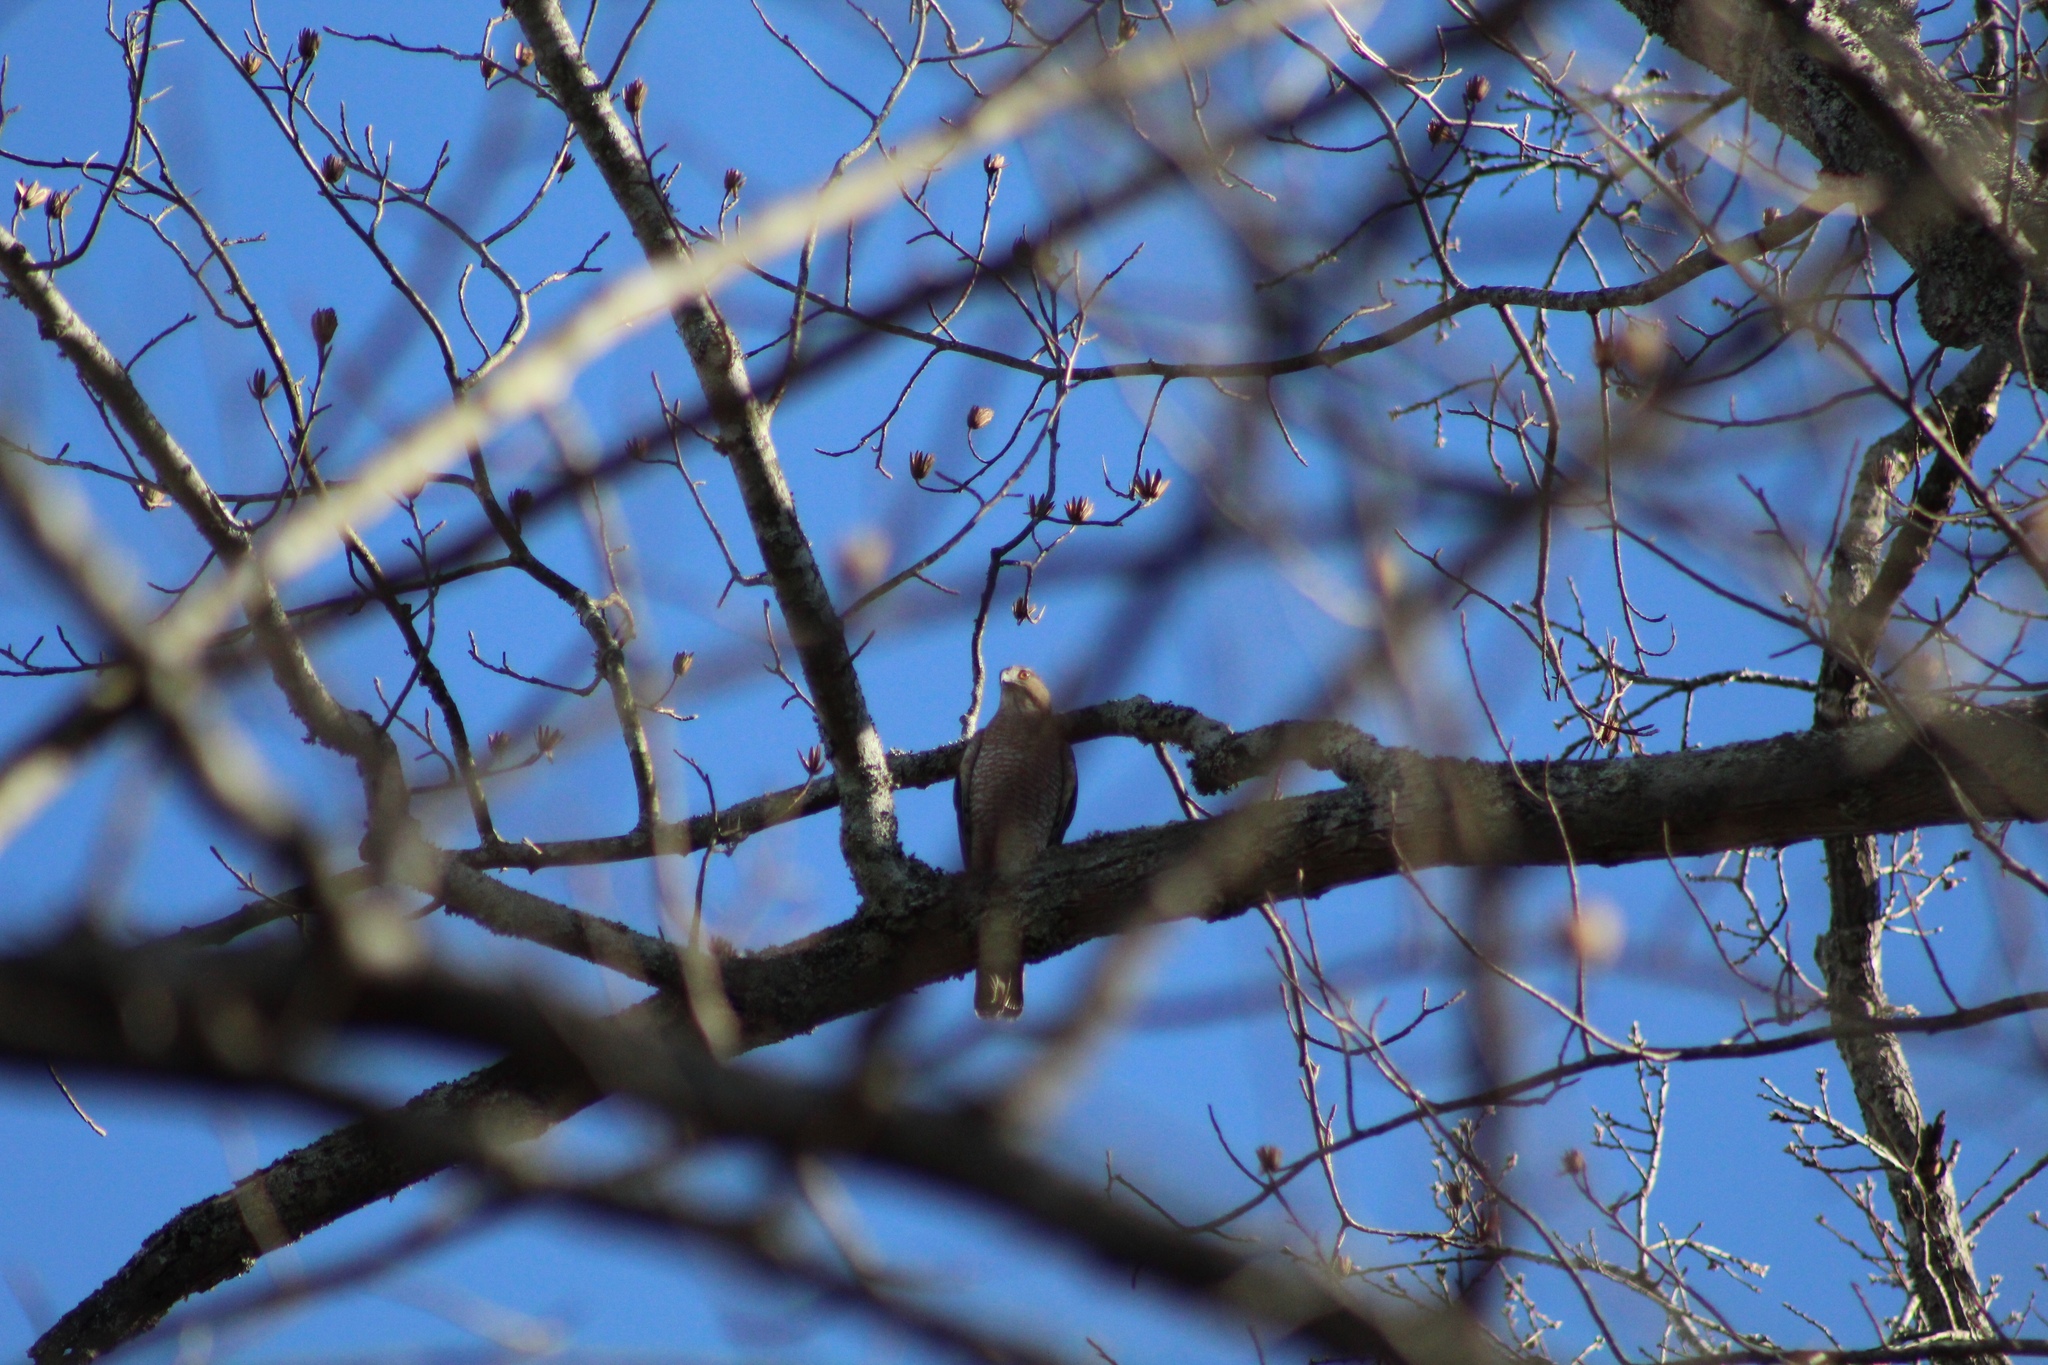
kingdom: Animalia
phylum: Chordata
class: Aves
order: Accipitriformes
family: Accipitridae
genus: Accipiter
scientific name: Accipiter cooperii
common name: Cooper's hawk
